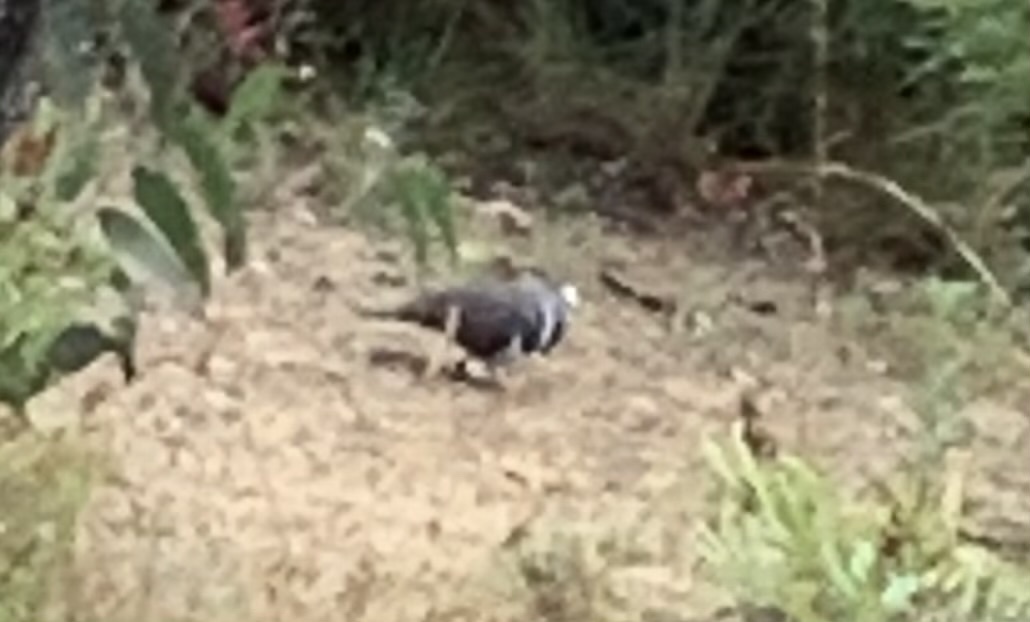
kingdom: Animalia
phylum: Chordata
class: Aves
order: Columbiformes
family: Columbidae
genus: Leucosarcia
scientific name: Leucosarcia melanoleuca
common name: Wonga pigeon
